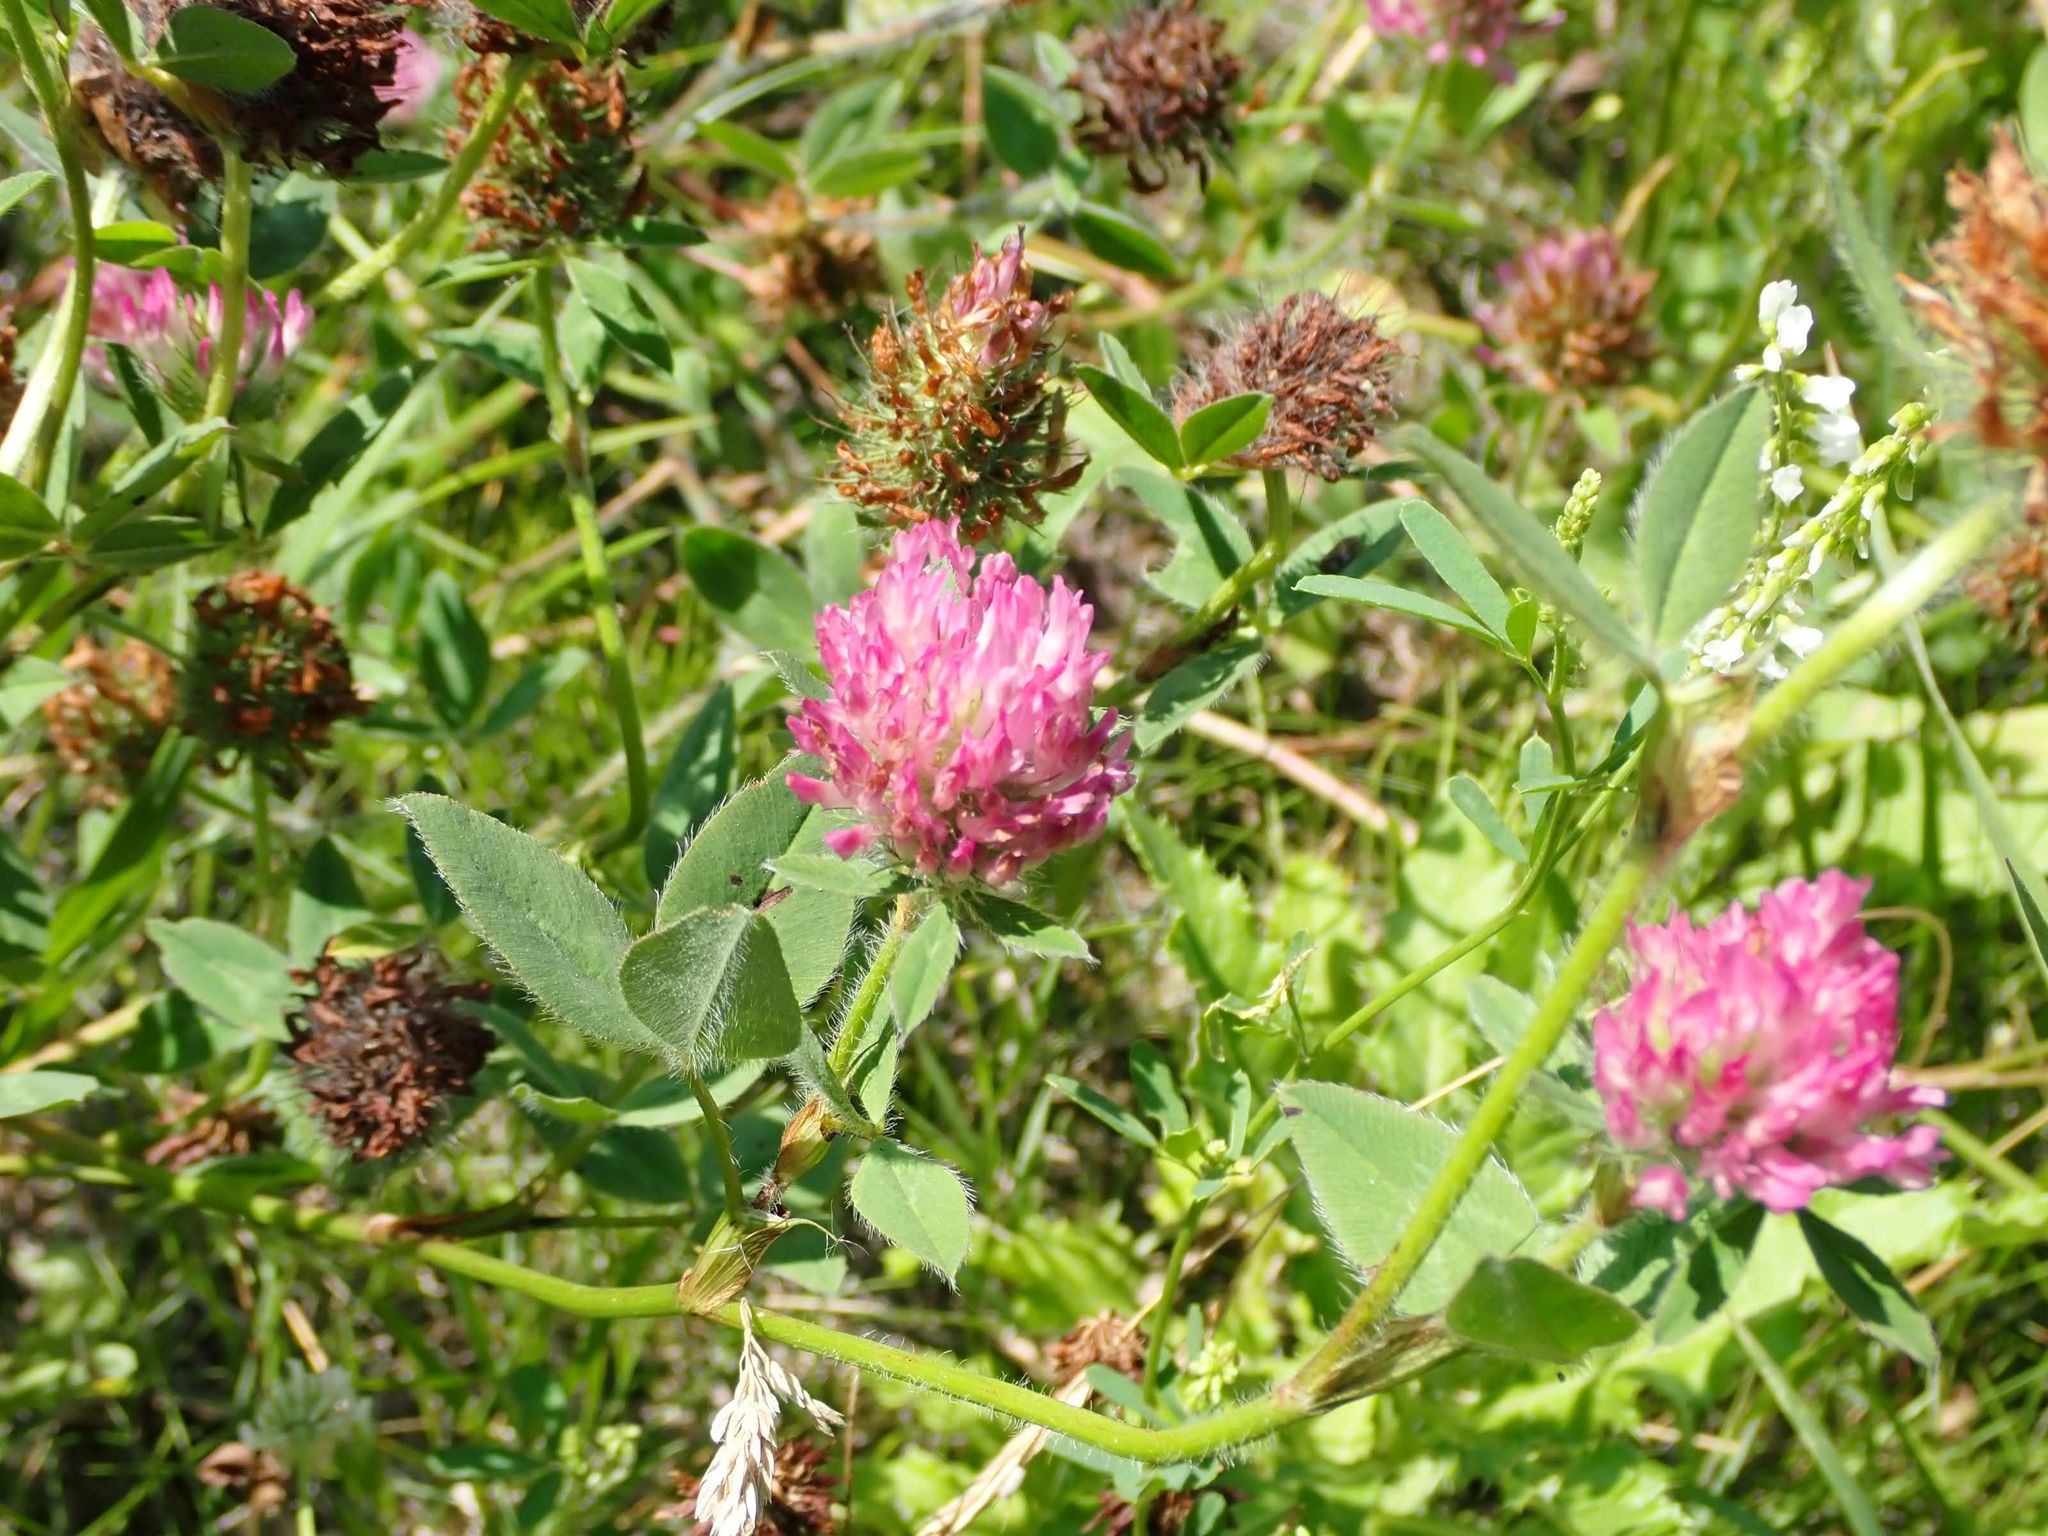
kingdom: Plantae
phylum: Tracheophyta
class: Magnoliopsida
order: Fabales
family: Fabaceae
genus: Trifolium
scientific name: Trifolium pratense
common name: Red clover
